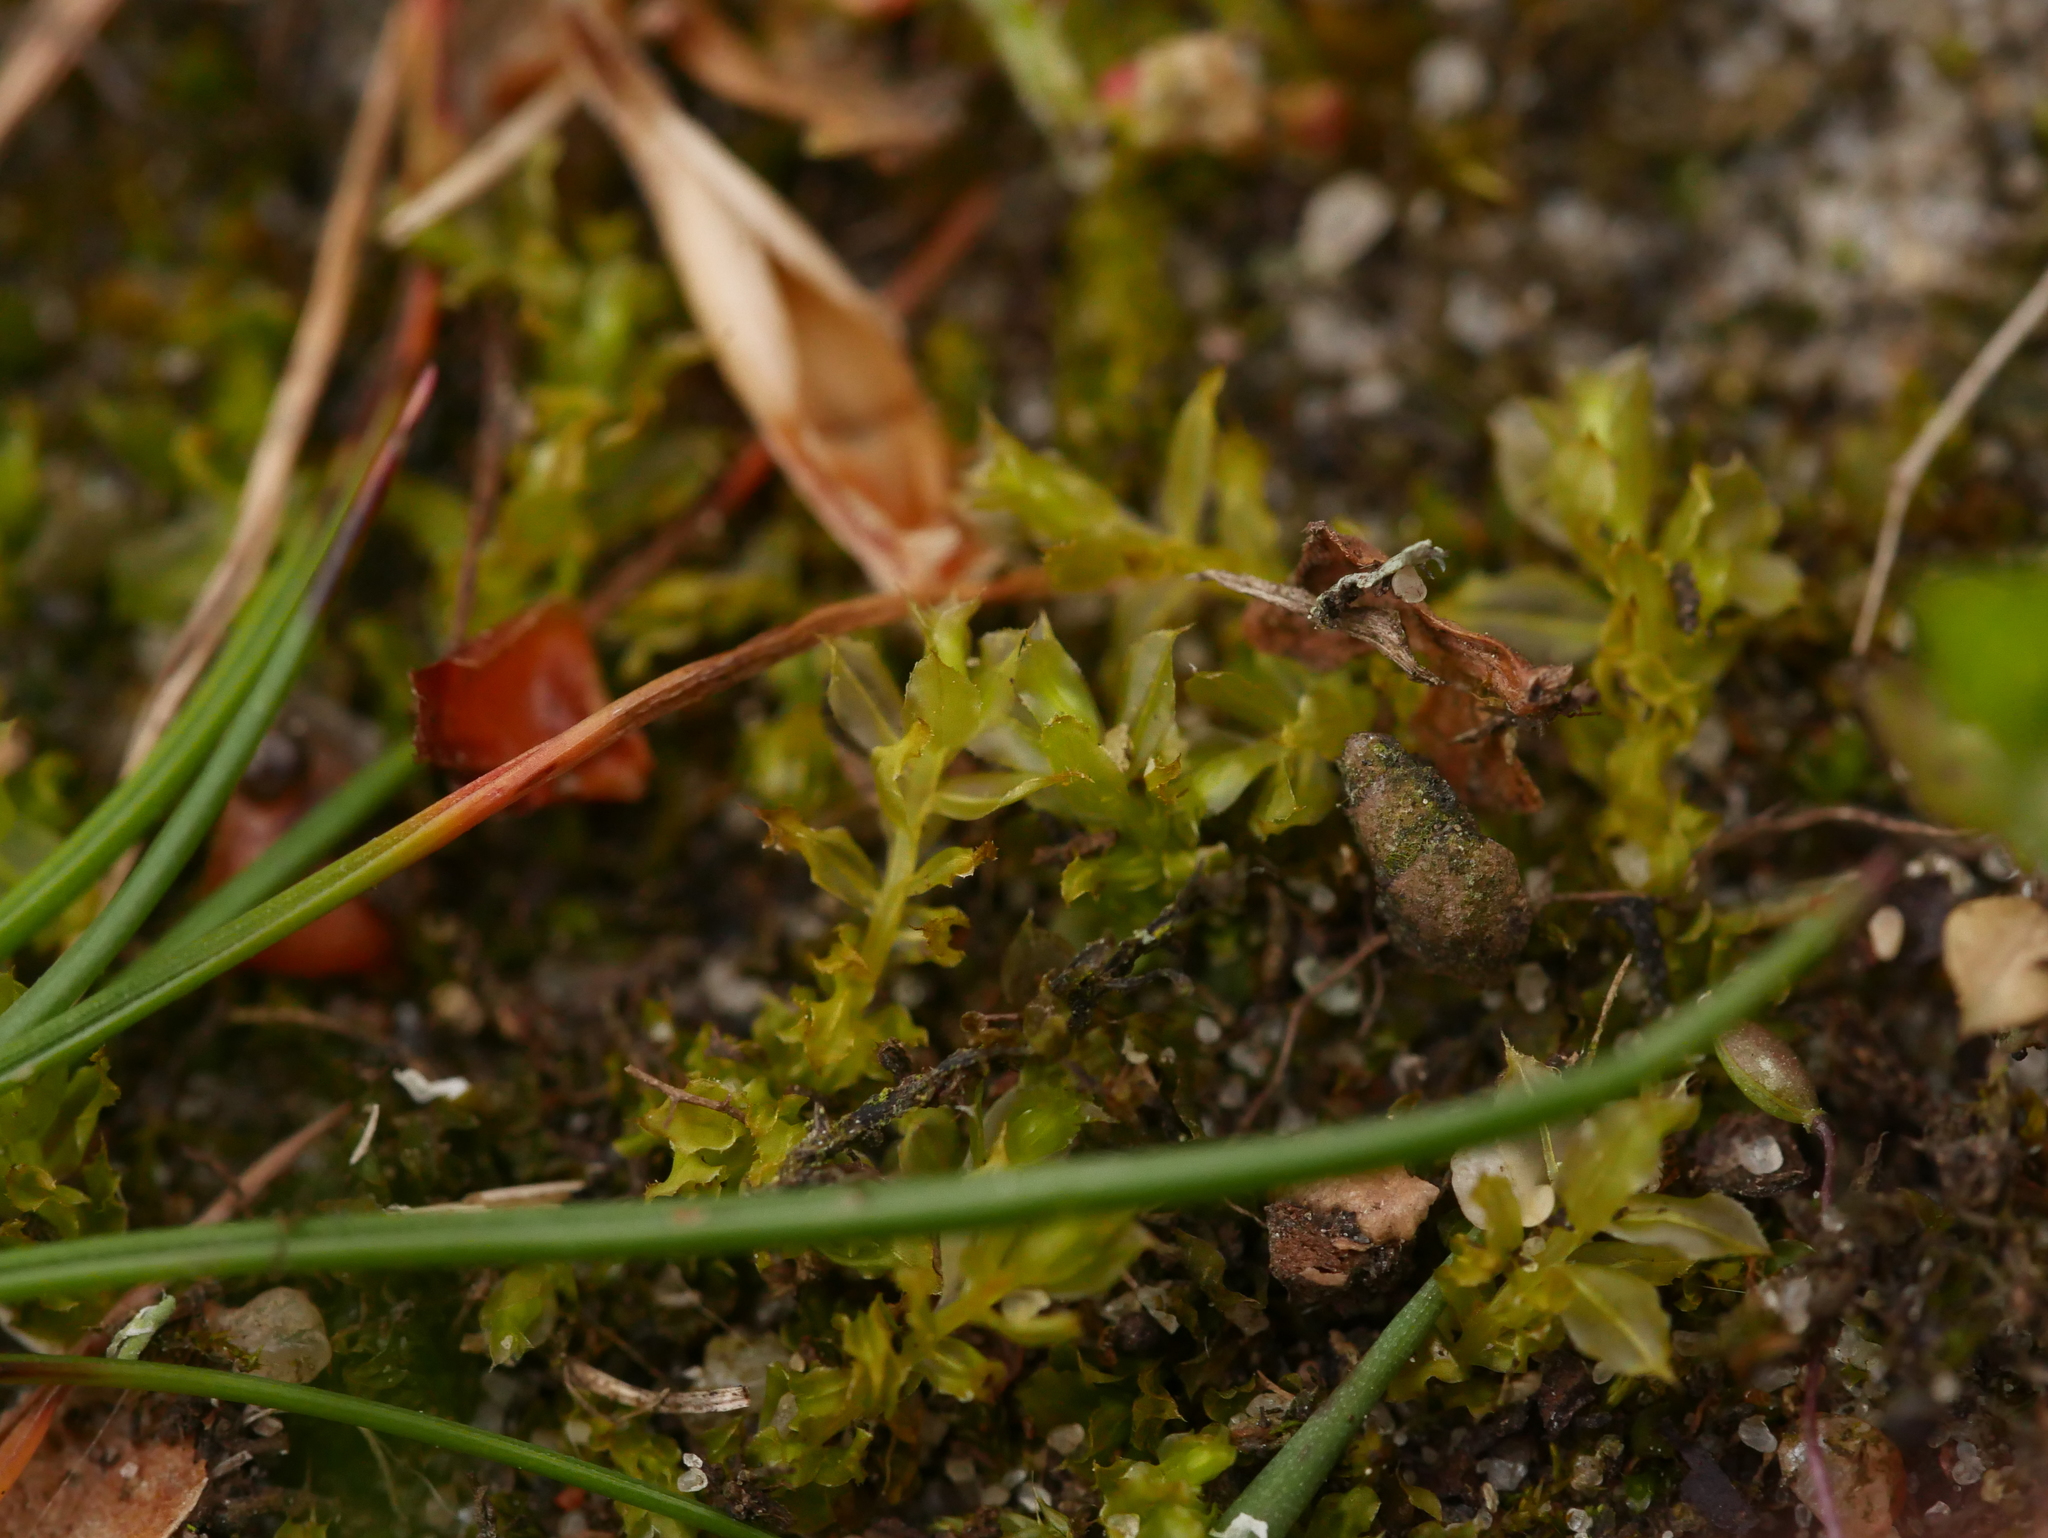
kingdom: Plantae
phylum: Bryophyta
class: Bryopsida
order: Bryales
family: Mniaceae
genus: Plagiomnium
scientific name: Plagiomnium cuspidatum
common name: Woodsy leafy moss
